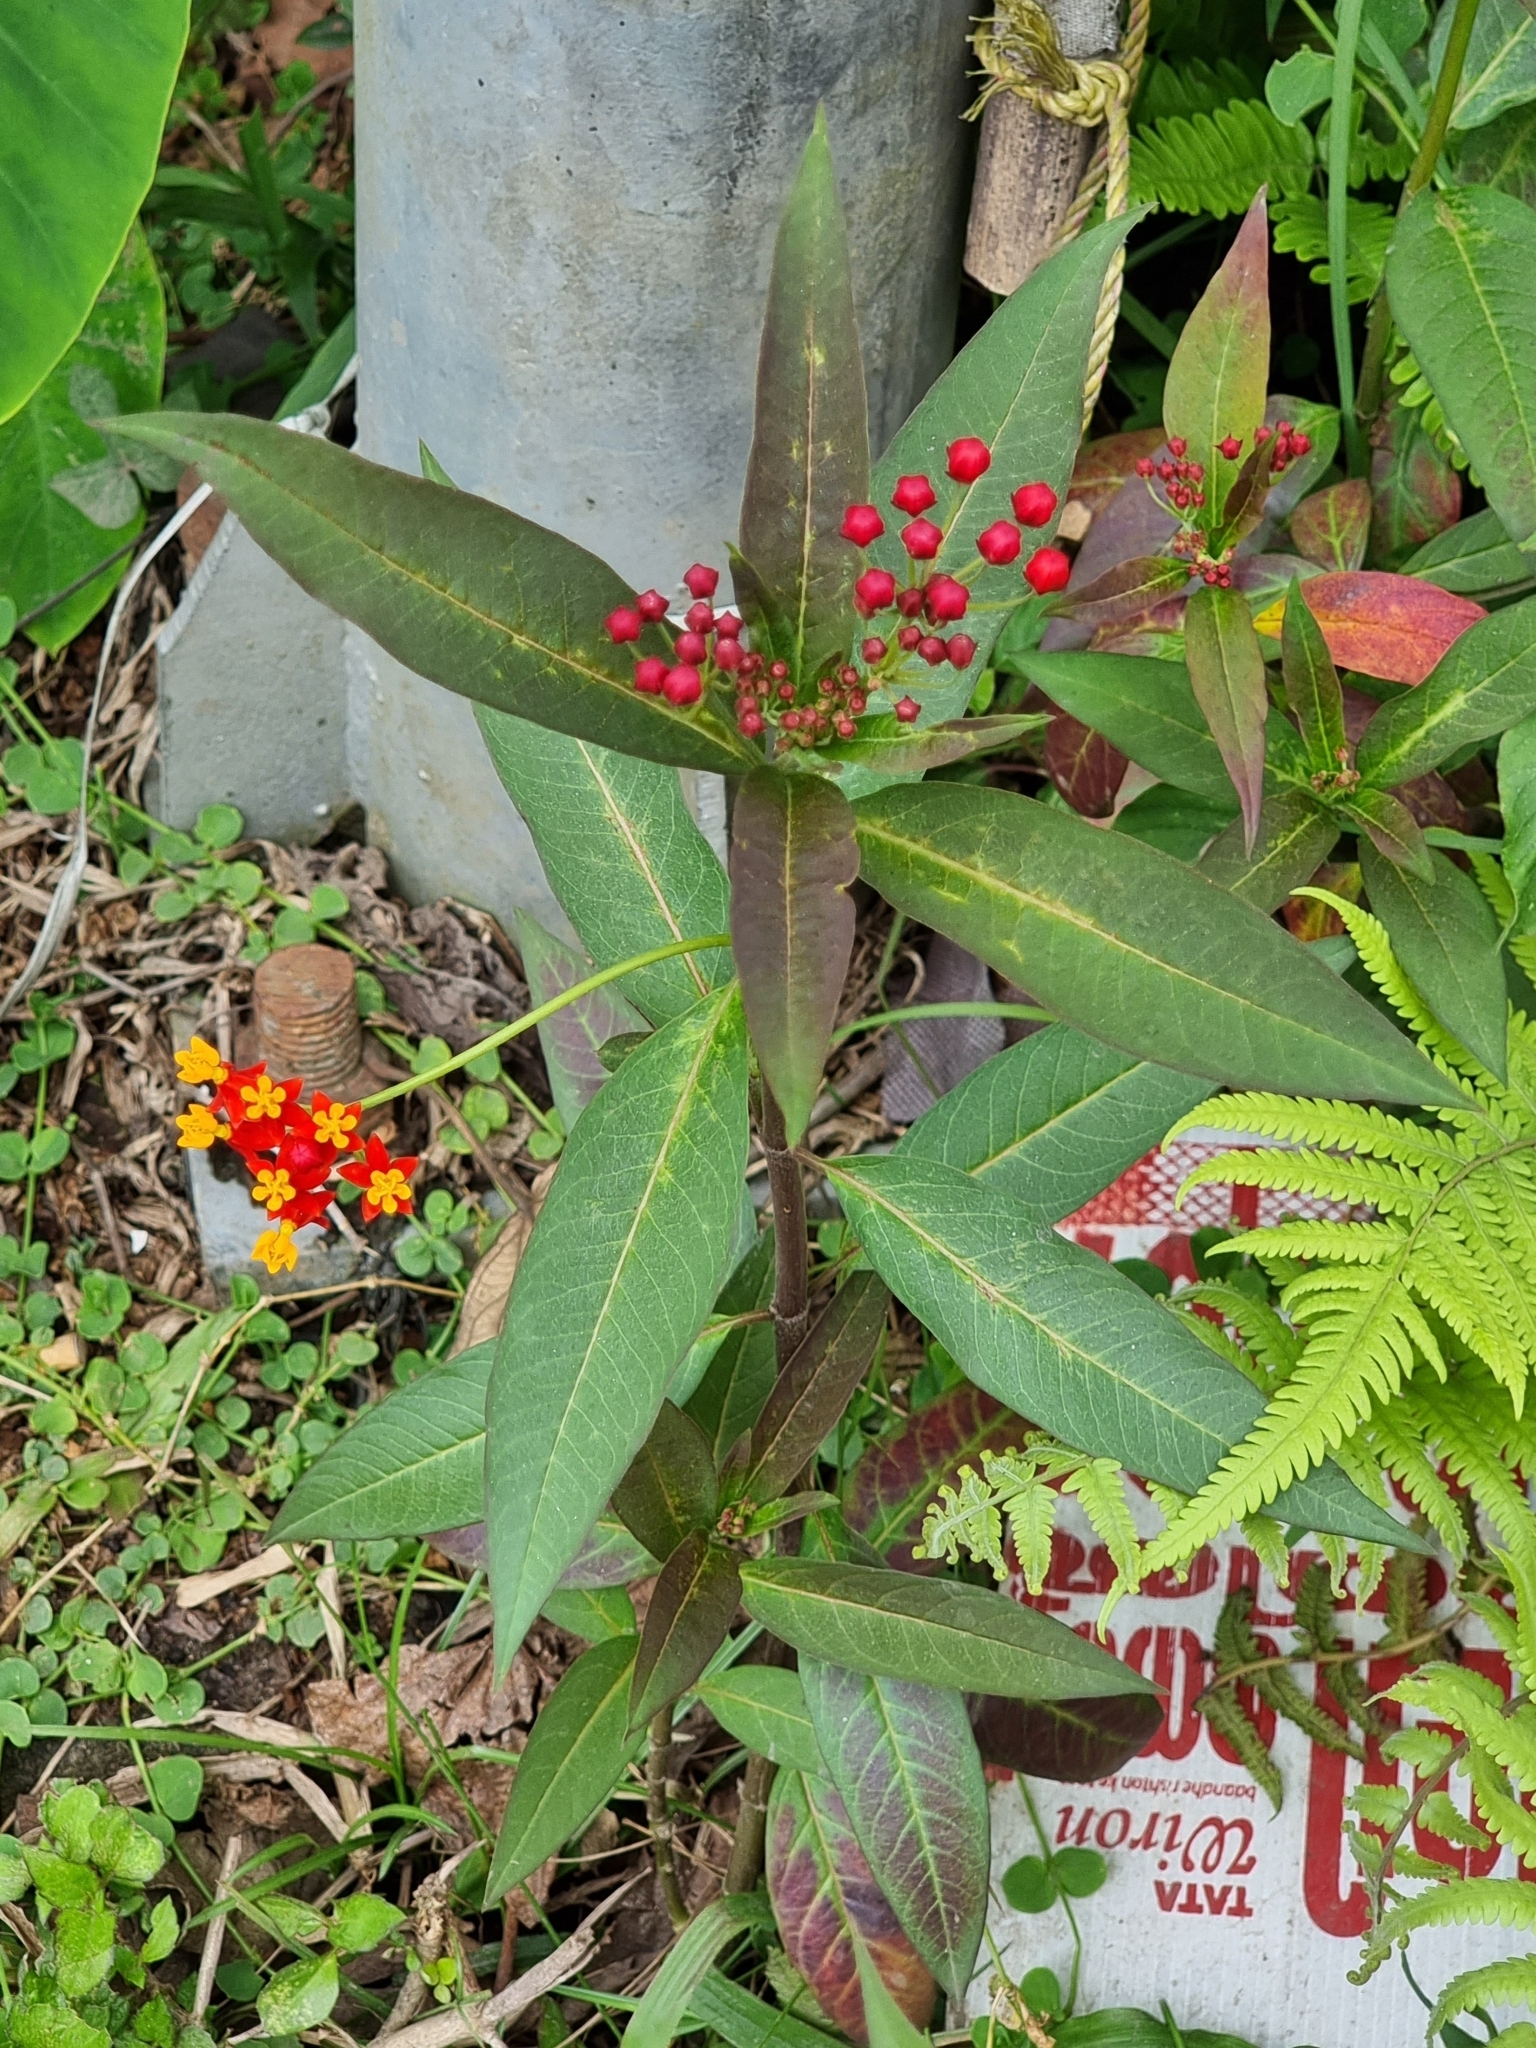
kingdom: Plantae
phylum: Tracheophyta
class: Magnoliopsida
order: Gentianales
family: Apocynaceae
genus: Asclepias
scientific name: Asclepias curassavica
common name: Bloodflower
